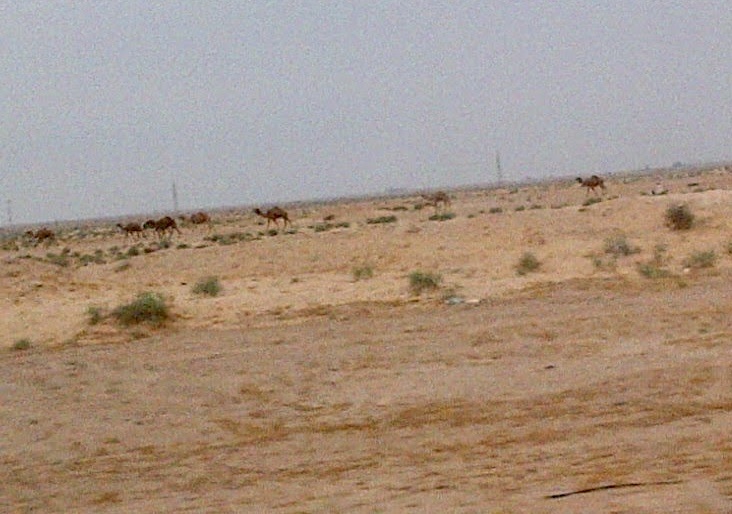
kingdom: Animalia
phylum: Chordata
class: Mammalia
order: Artiodactyla
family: Camelidae
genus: Camelus
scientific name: Camelus dromedarius
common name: One-humped camel
